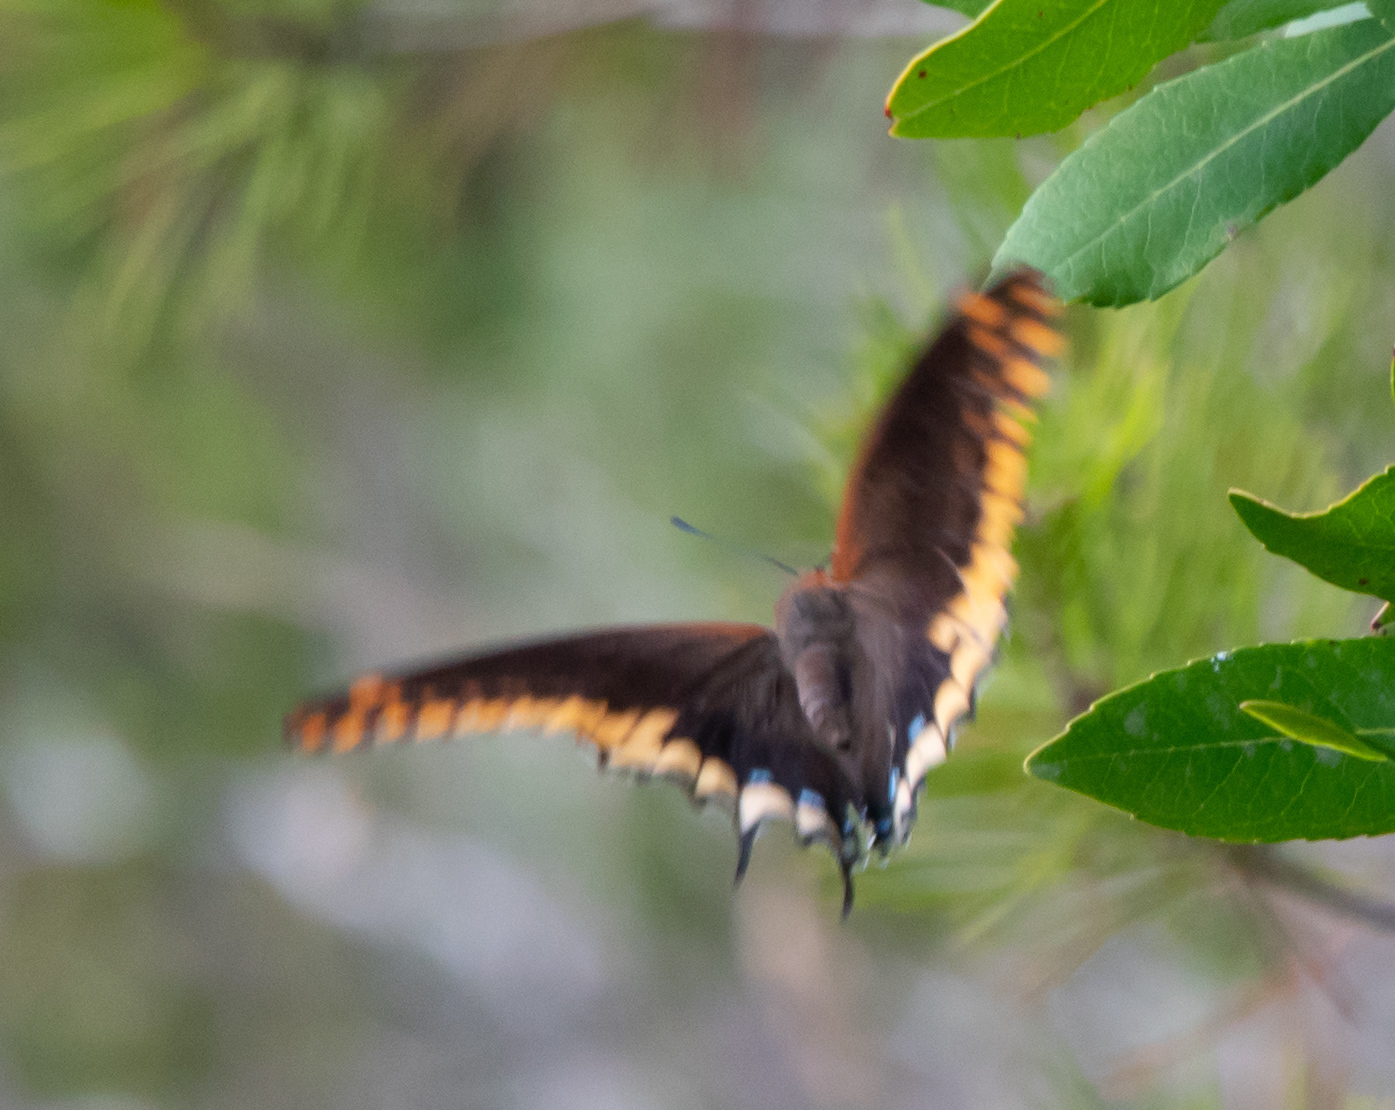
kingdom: Animalia
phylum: Arthropoda
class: Insecta
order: Lepidoptera
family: Nymphalidae
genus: Charaxes
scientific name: Charaxes jasius
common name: Two tailed pasha
